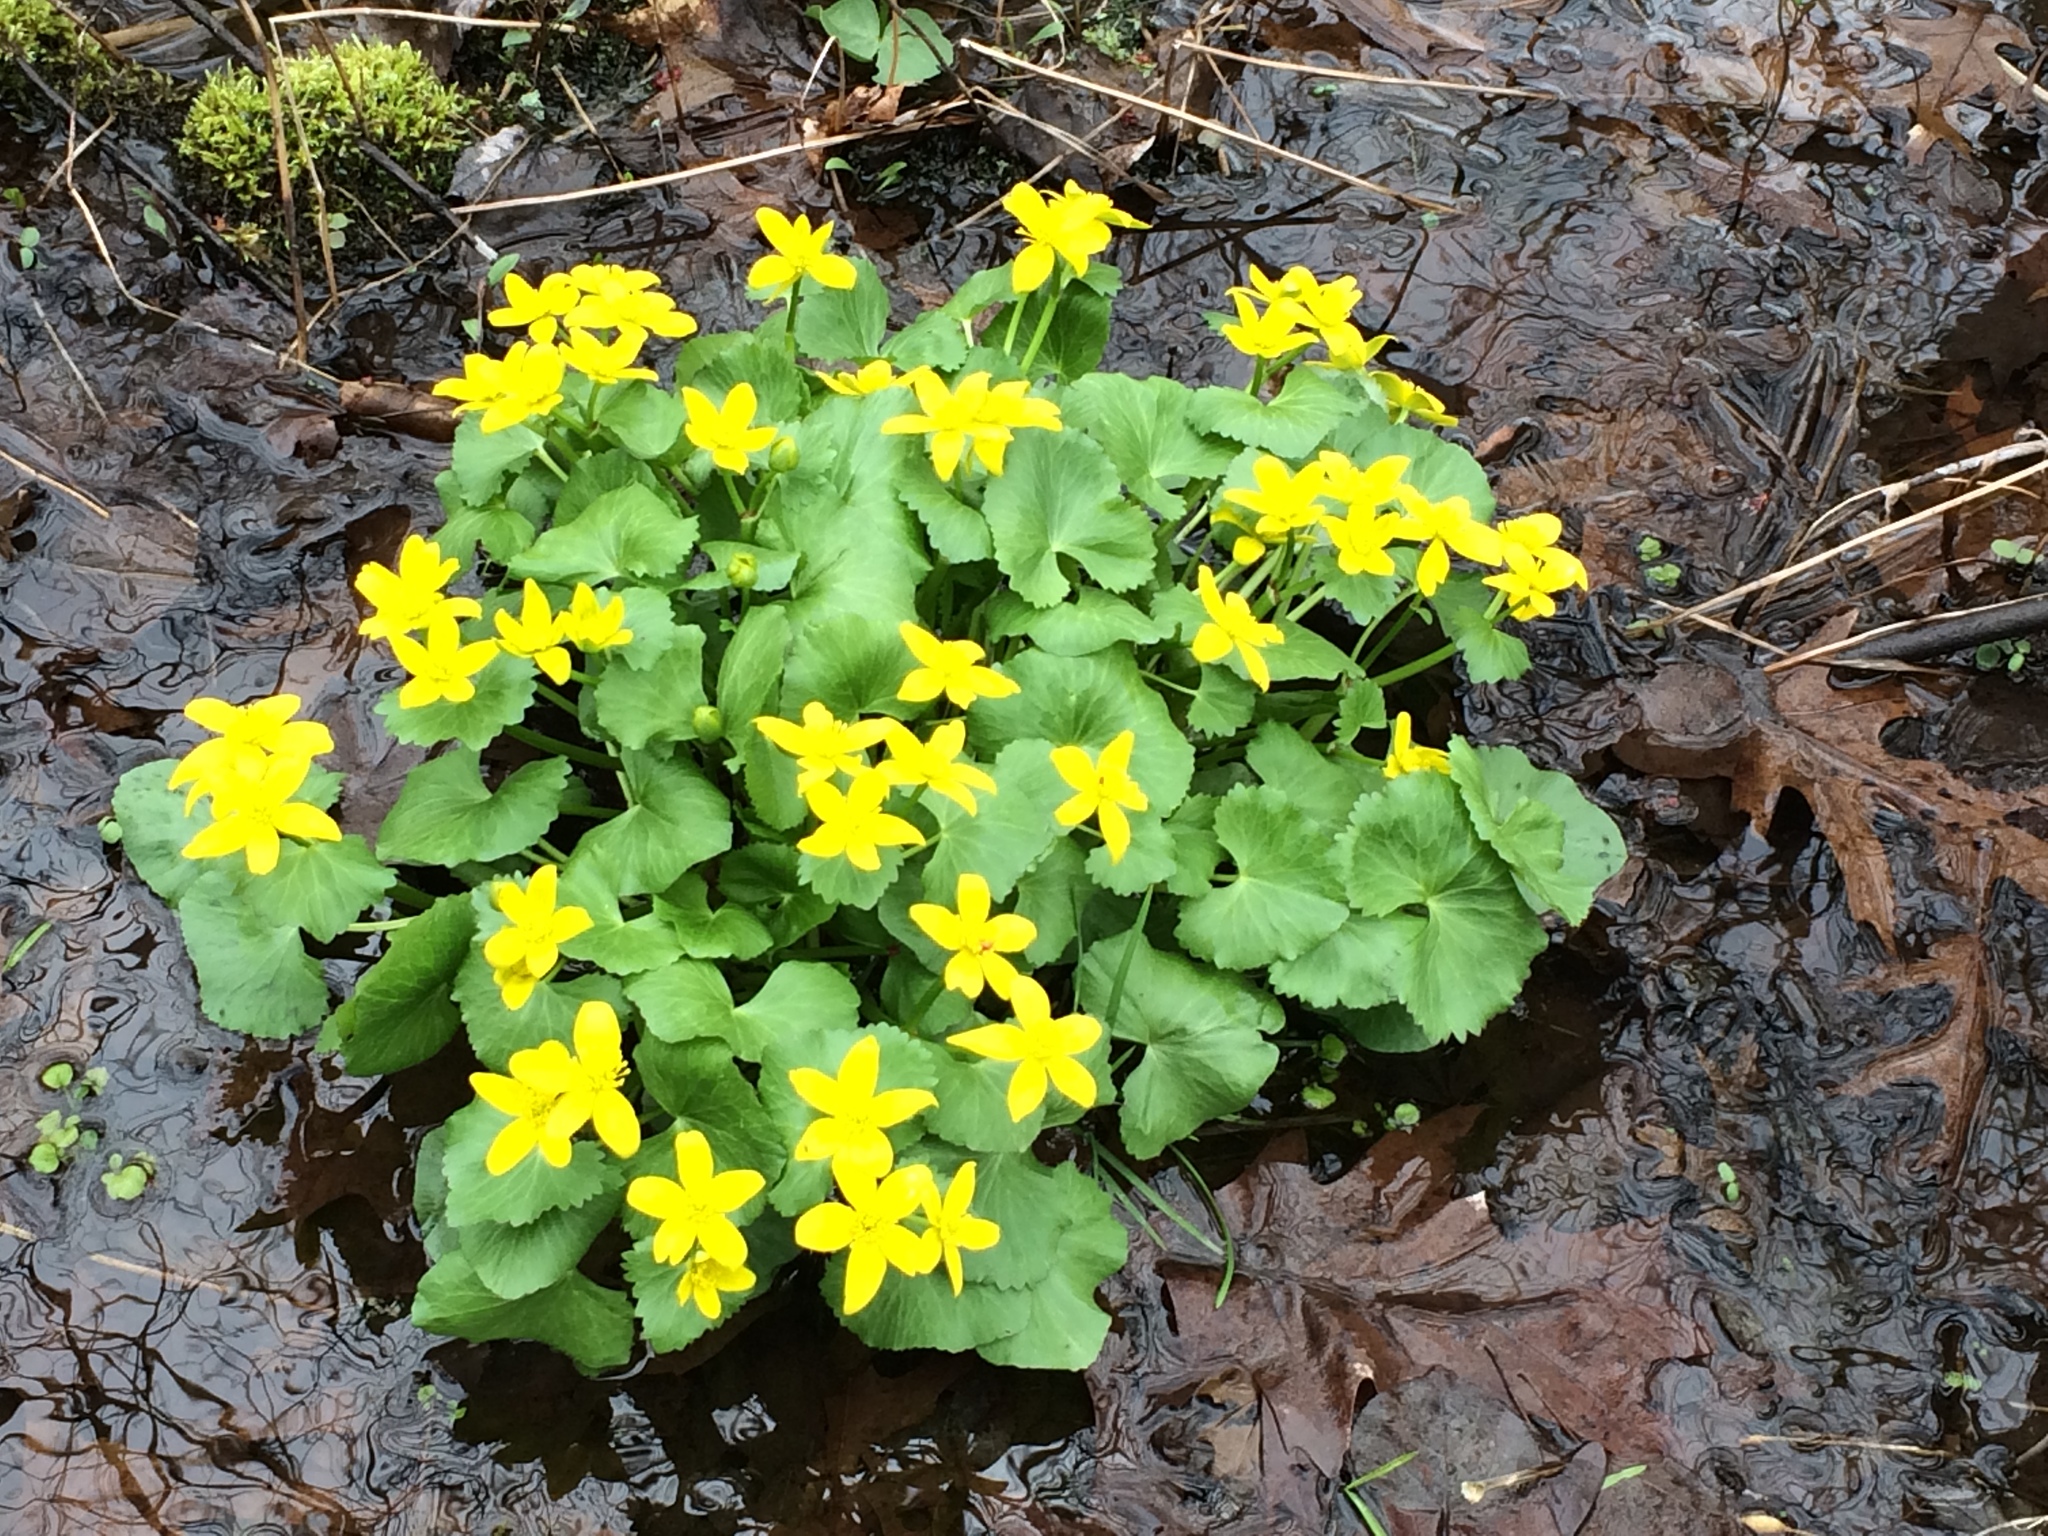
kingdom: Plantae
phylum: Tracheophyta
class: Magnoliopsida
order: Ranunculales
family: Ranunculaceae
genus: Caltha
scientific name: Caltha palustris
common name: Marsh marigold
